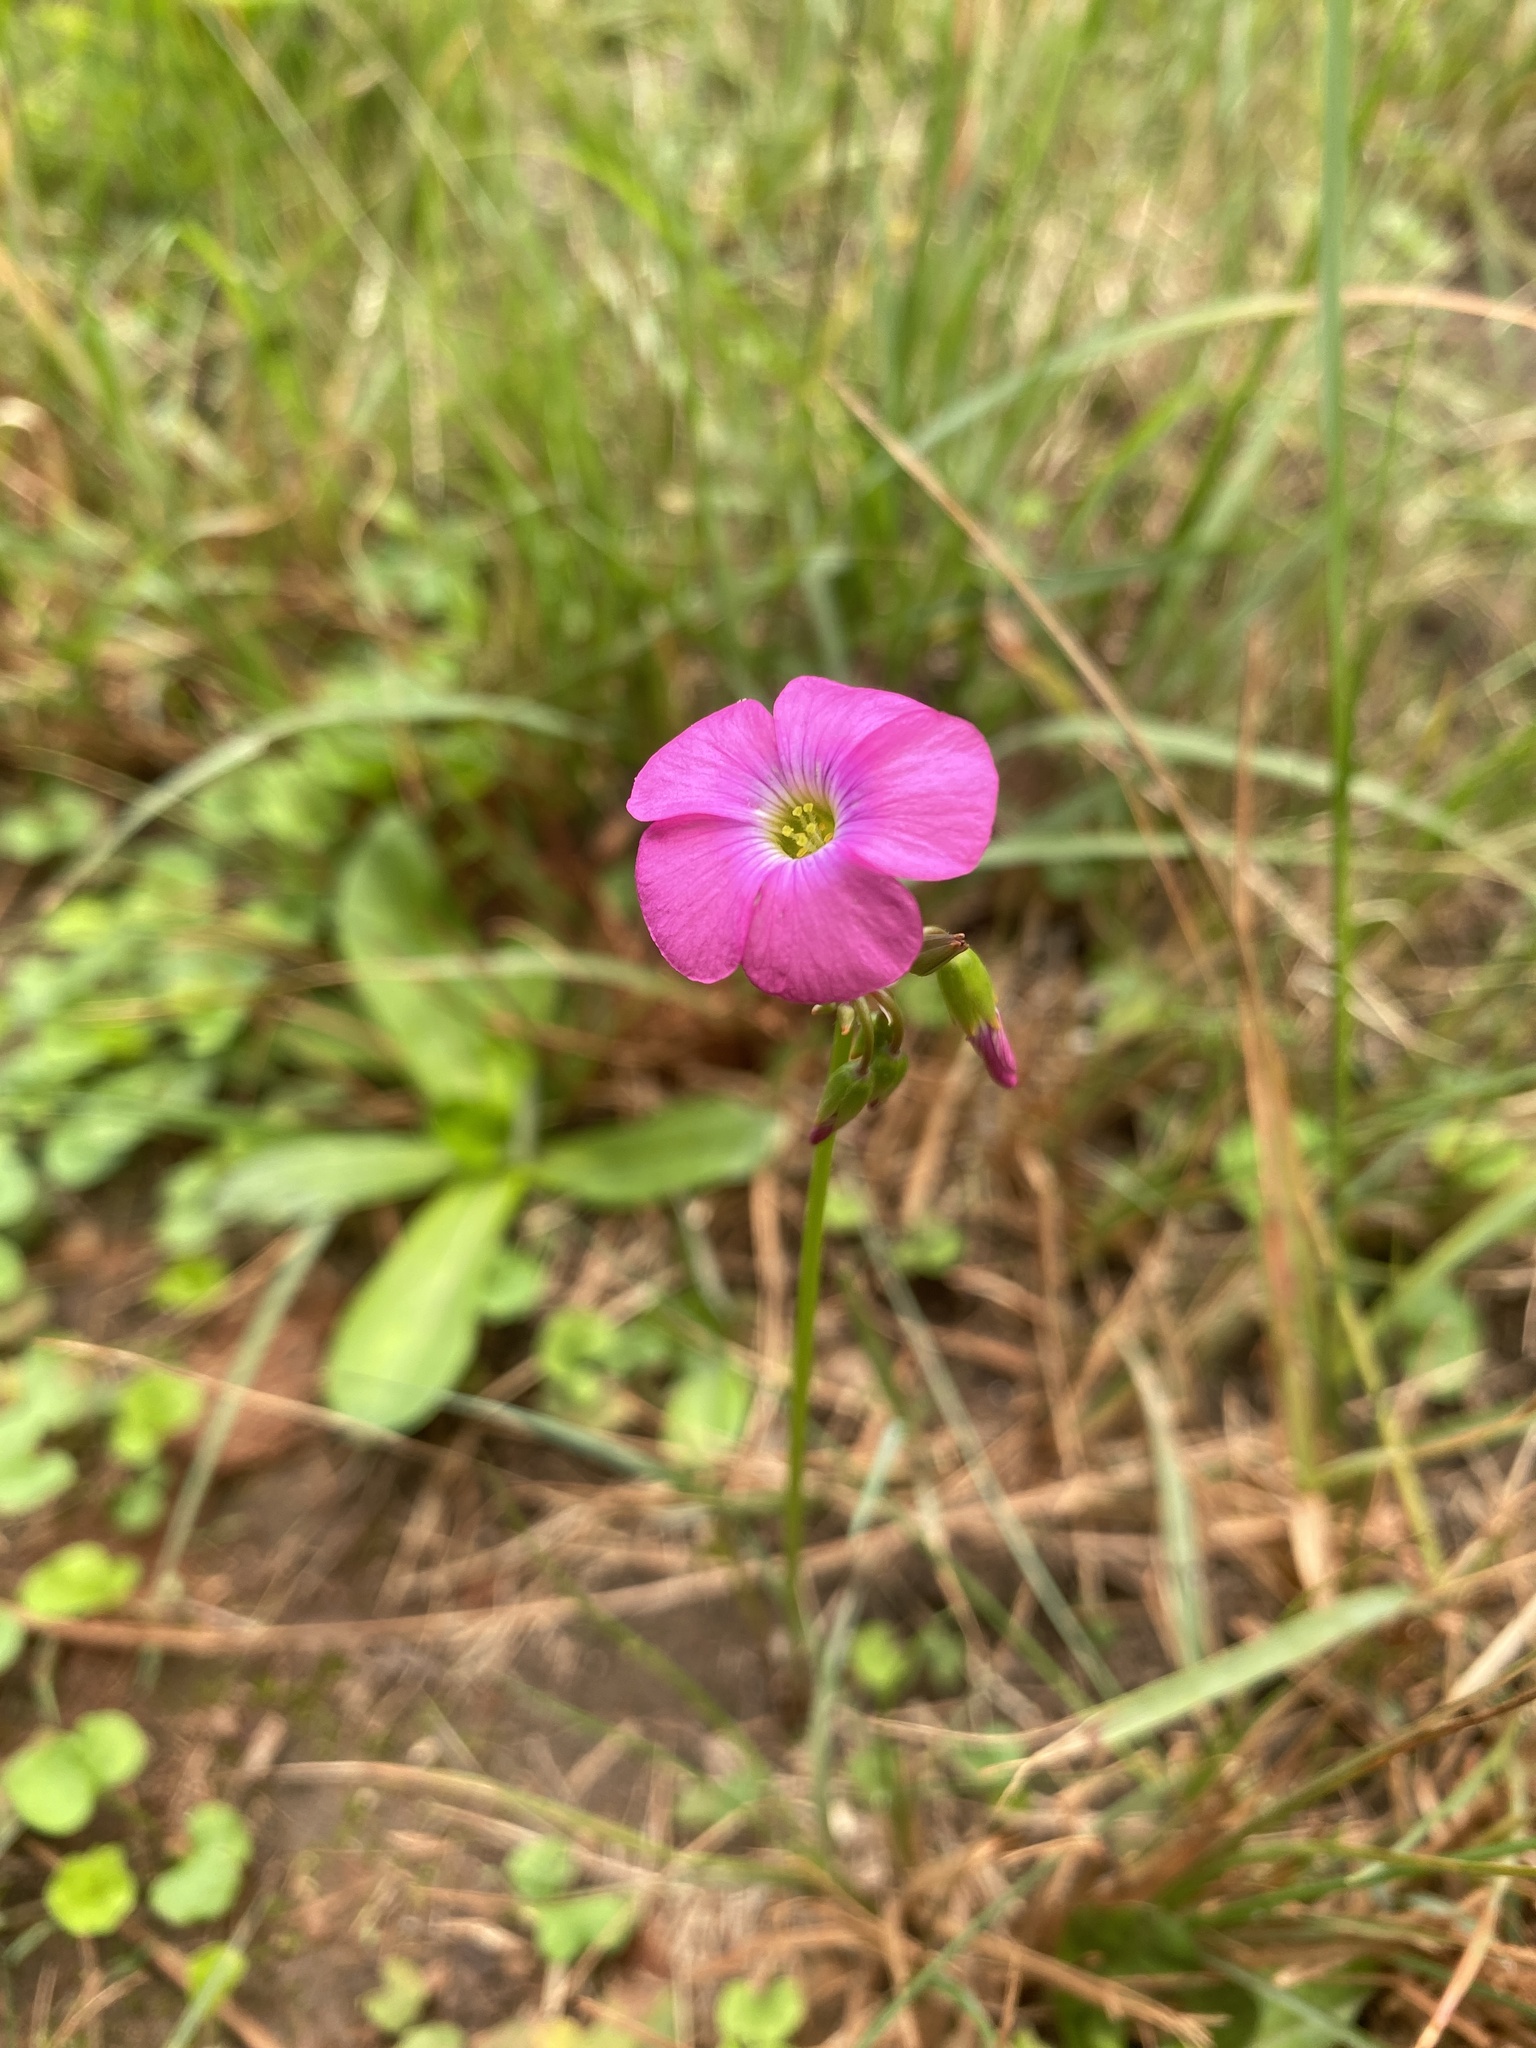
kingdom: Plantae
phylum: Tracheophyta
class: Magnoliopsida
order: Oxalidales
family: Oxalidaceae
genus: Oxalis
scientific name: Oxalis semiloba
